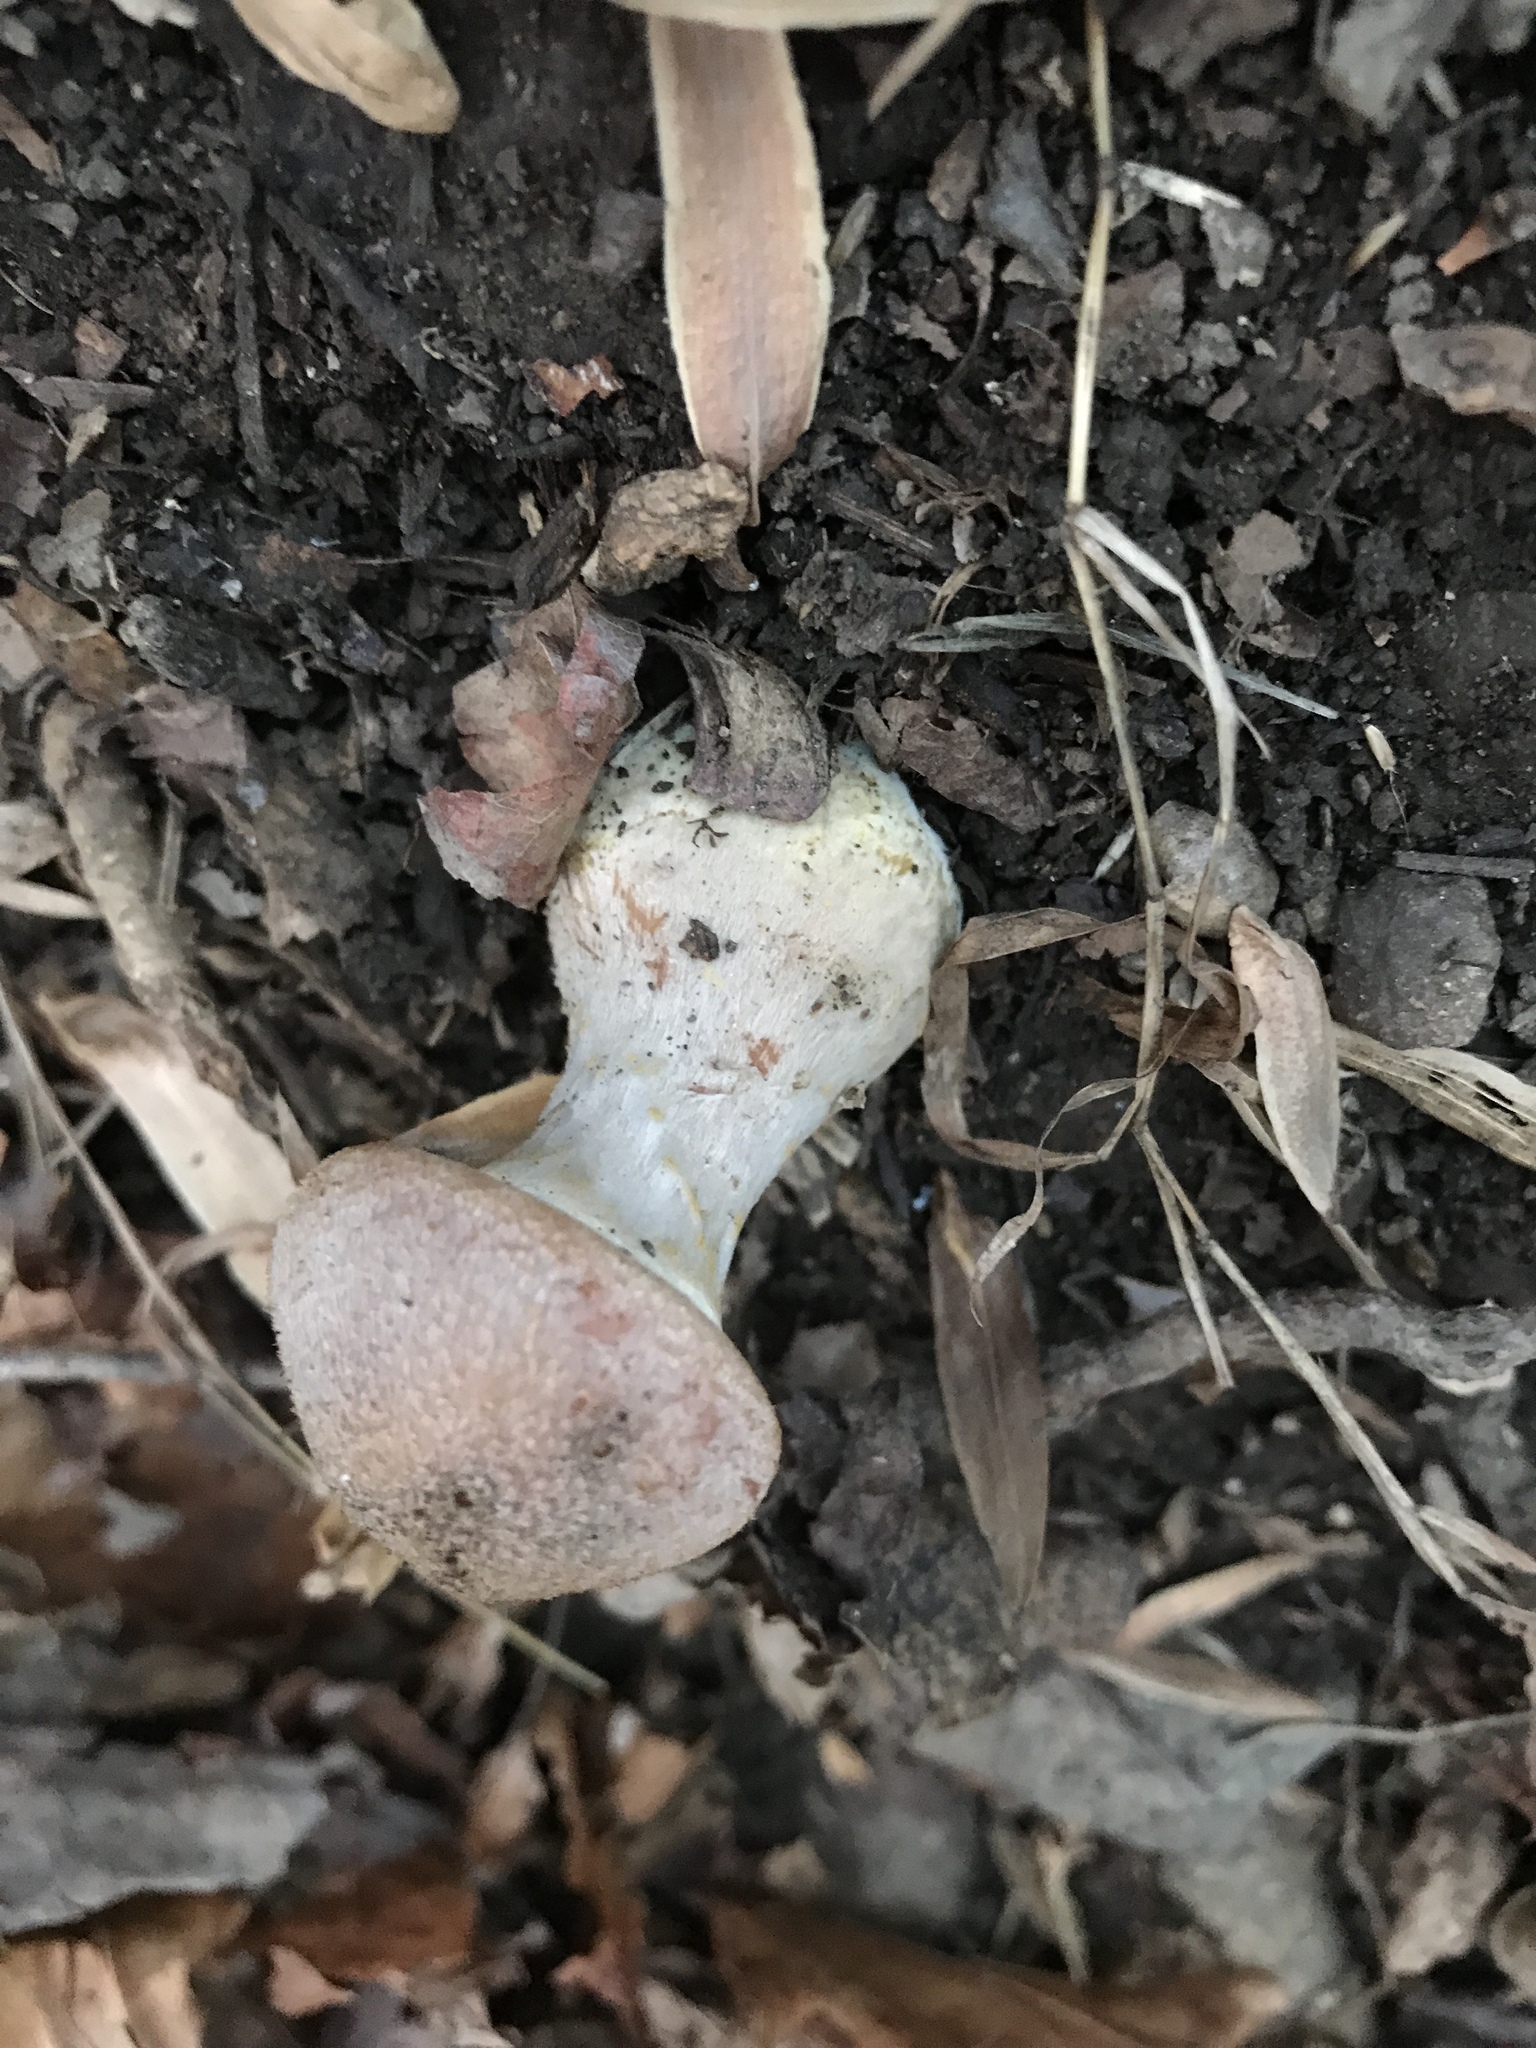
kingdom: Fungi
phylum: Basidiomycota
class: Agaricomycetes
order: Agaricales
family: Physalacriaceae
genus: Armillaria
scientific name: Armillaria gallica
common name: Bulbous honey fungus
